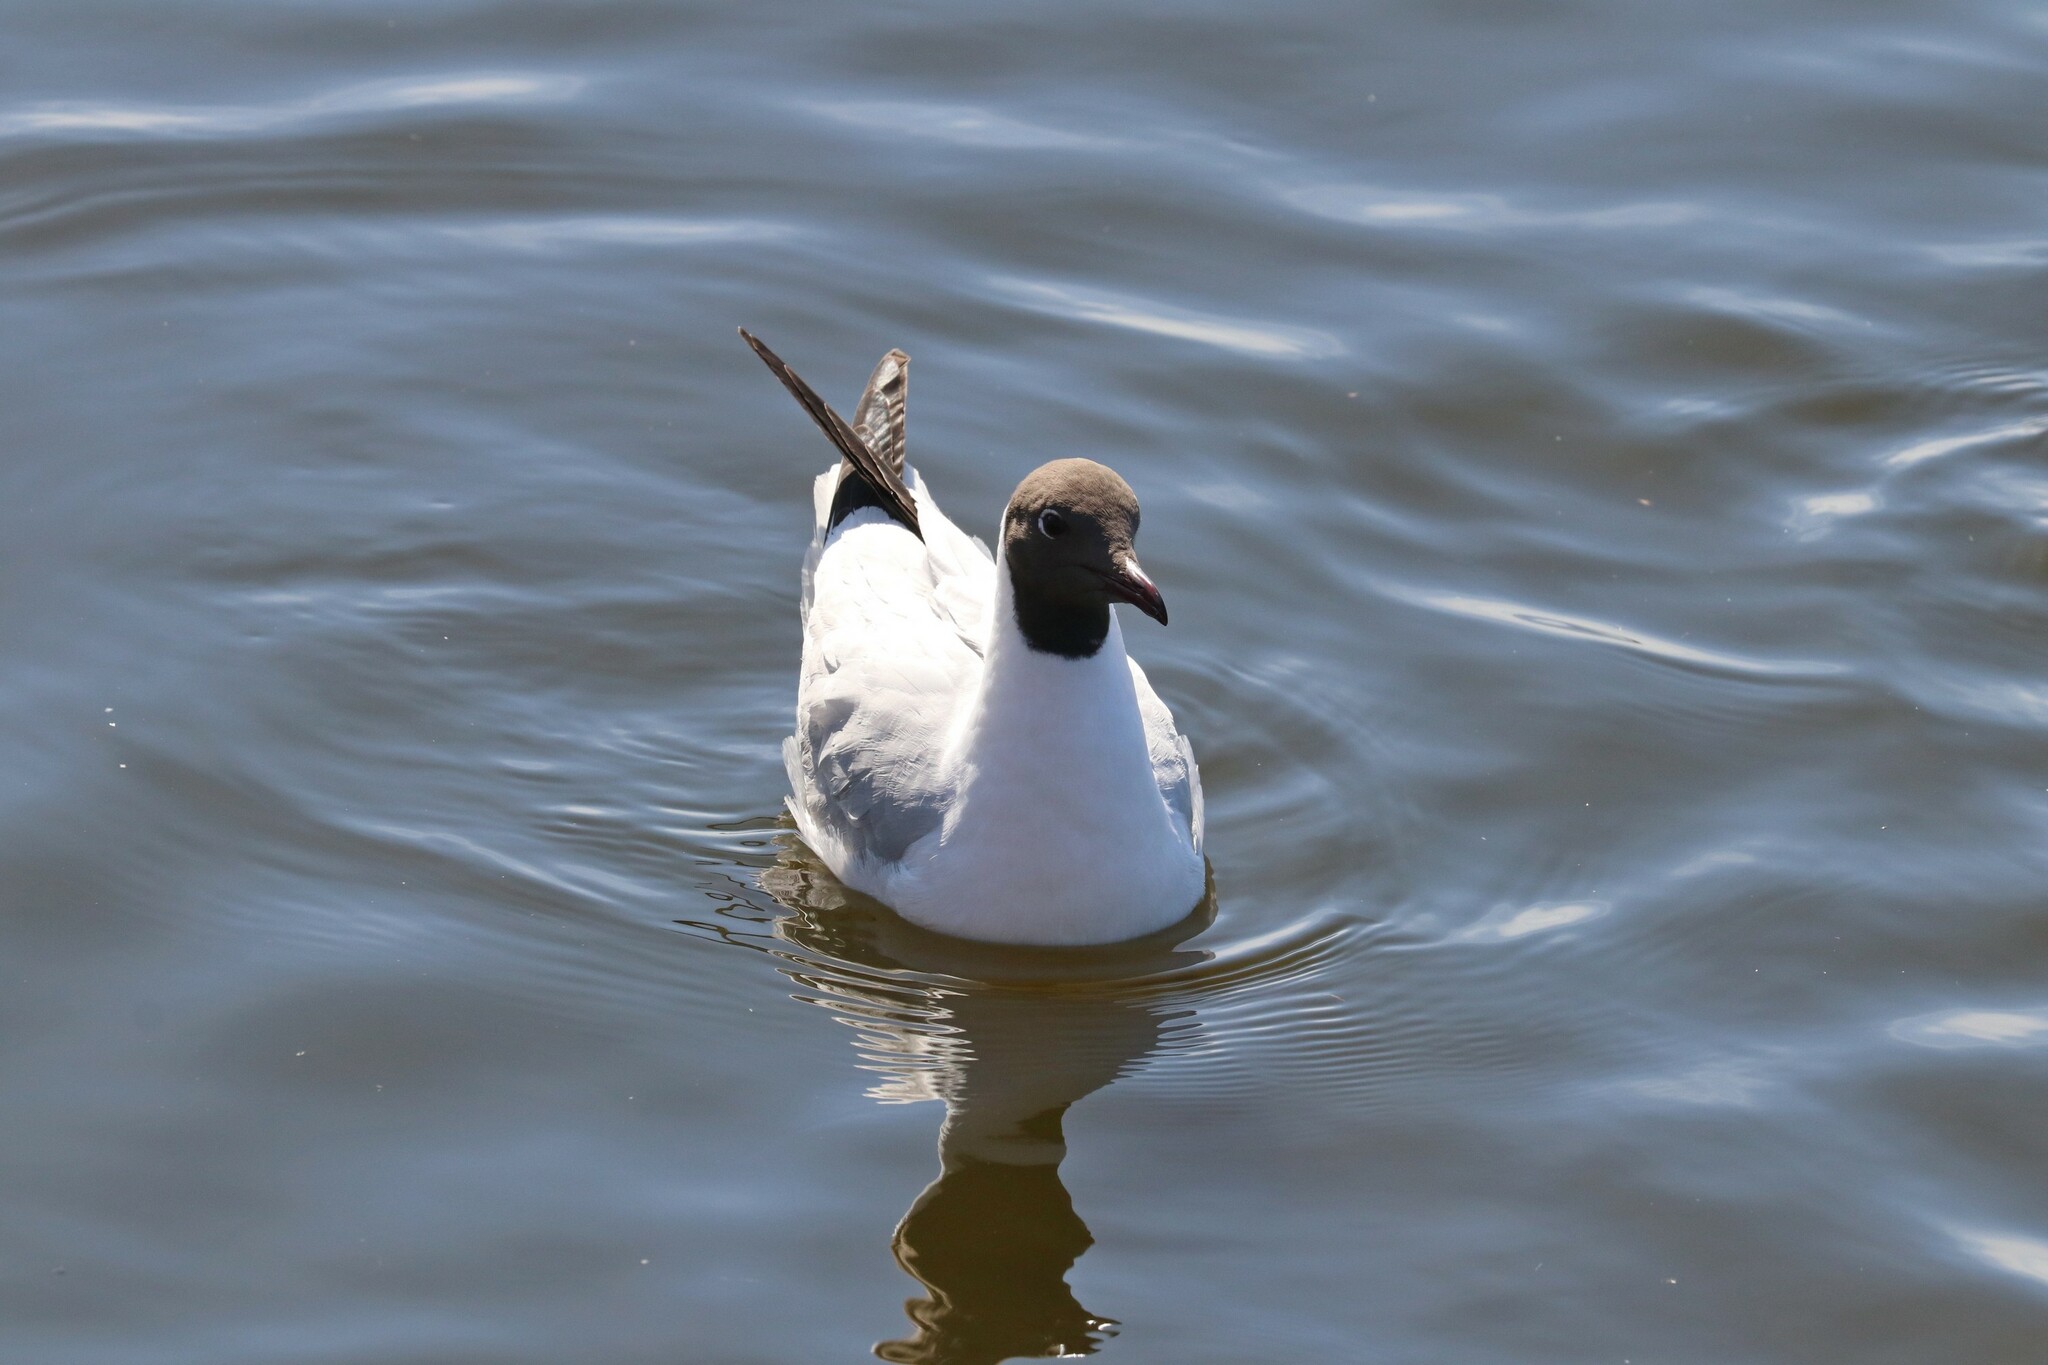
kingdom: Animalia
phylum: Chordata
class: Aves
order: Charadriiformes
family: Laridae
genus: Chroicocephalus
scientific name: Chroicocephalus ridibundus
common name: Black-headed gull
